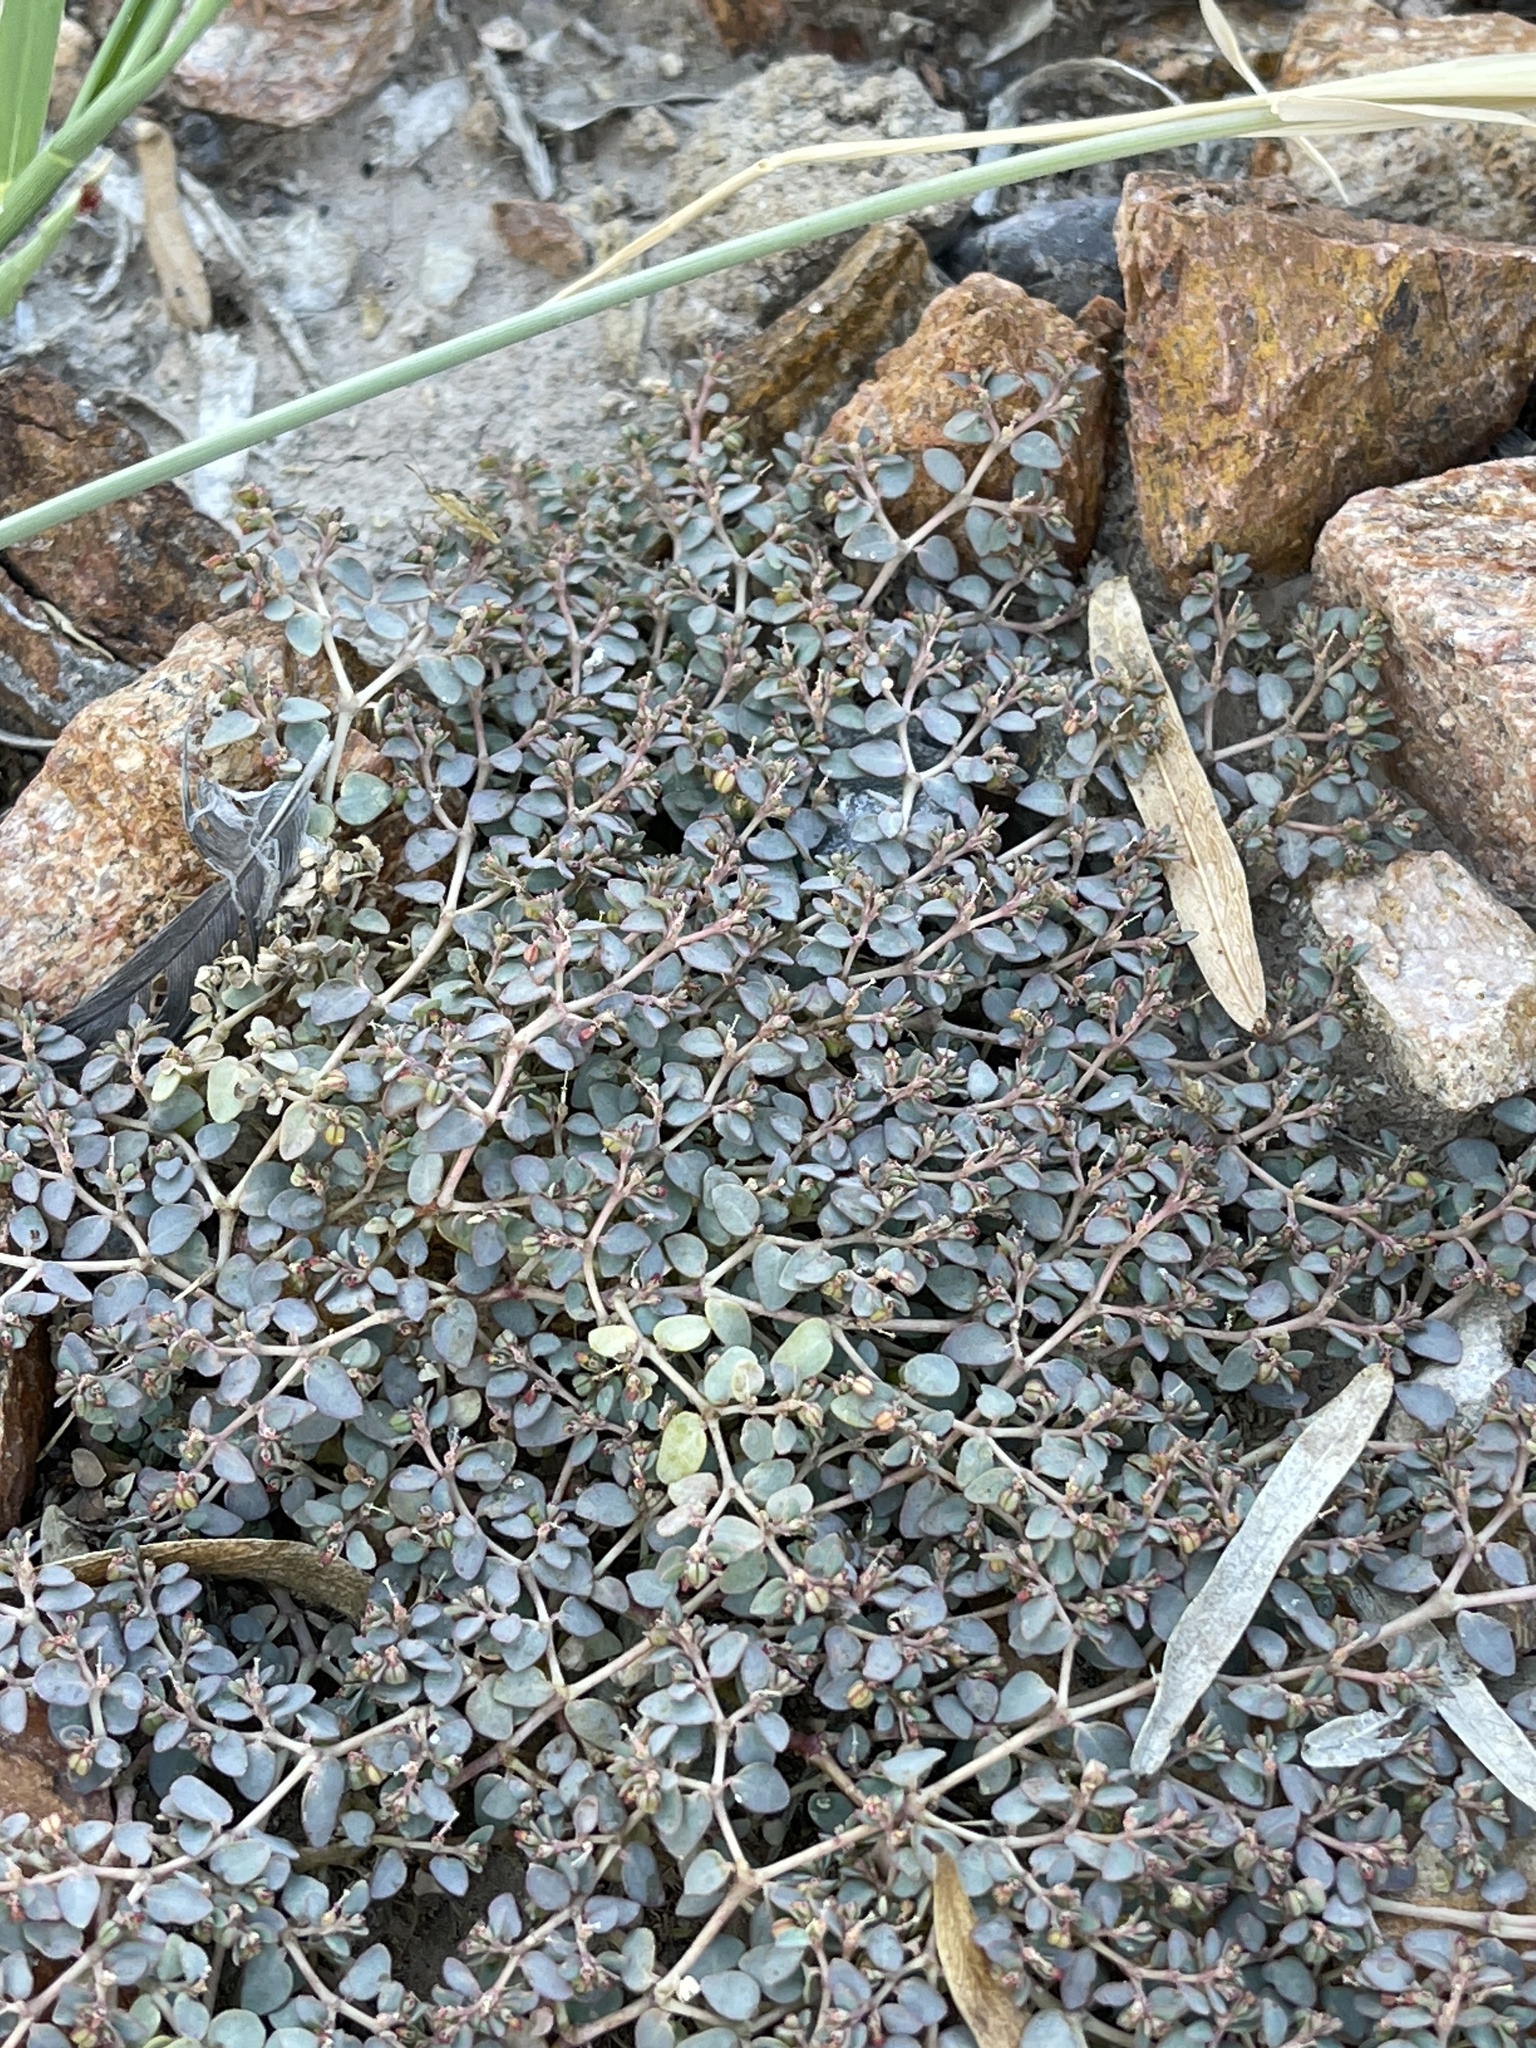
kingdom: Plantae
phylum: Tracheophyta
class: Magnoliopsida
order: Malpighiales
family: Euphorbiaceae
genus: Euphorbia
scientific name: Euphorbia micromera
